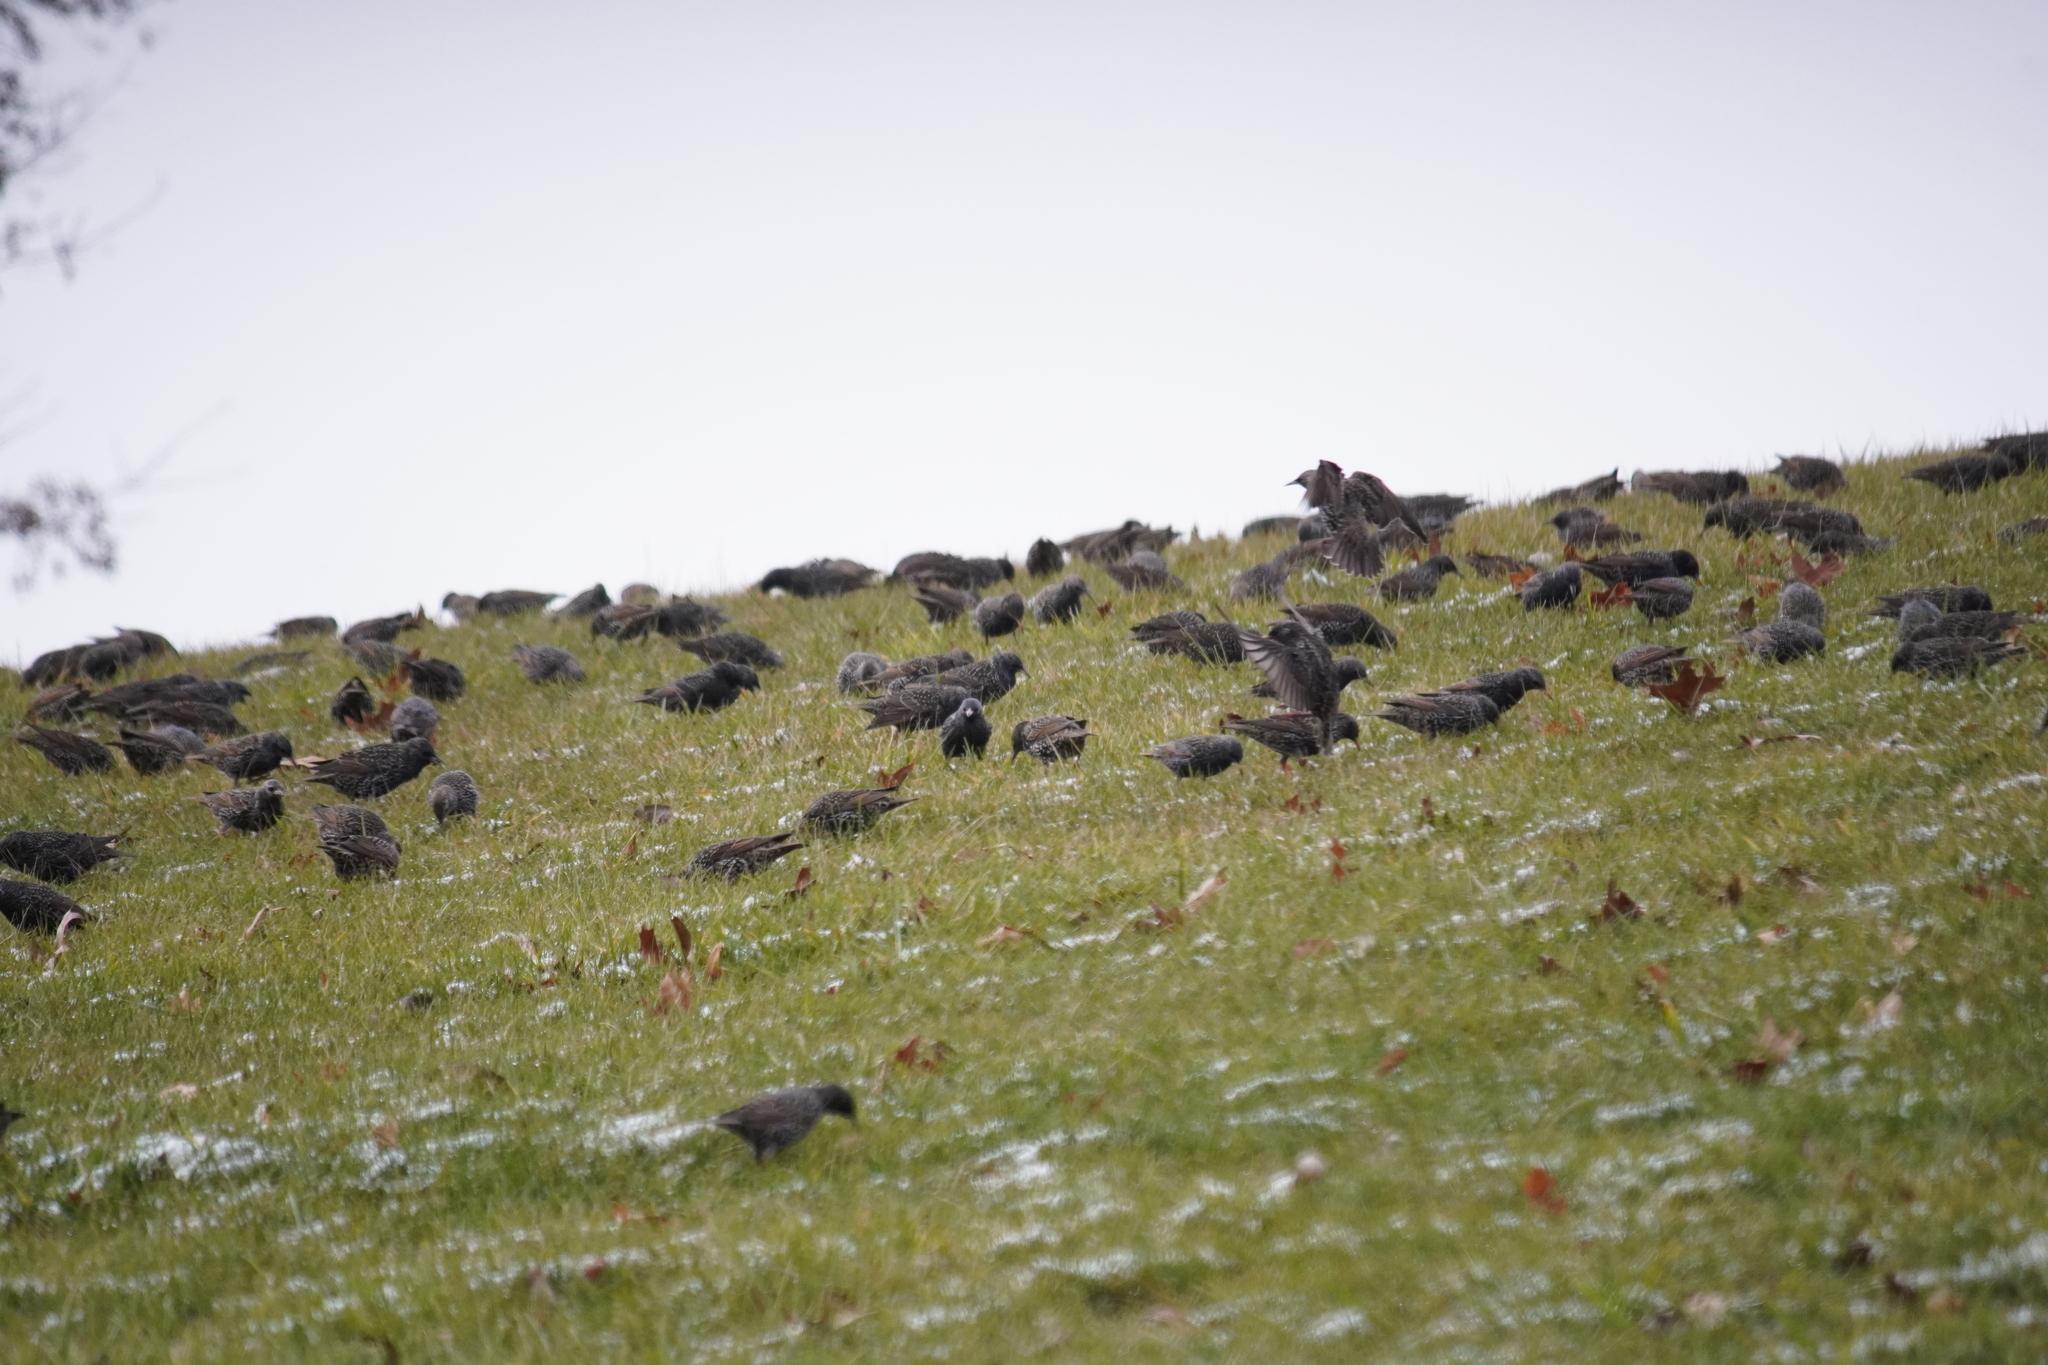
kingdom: Animalia
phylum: Chordata
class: Aves
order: Passeriformes
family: Sturnidae
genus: Sturnus
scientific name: Sturnus vulgaris
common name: Common starling
